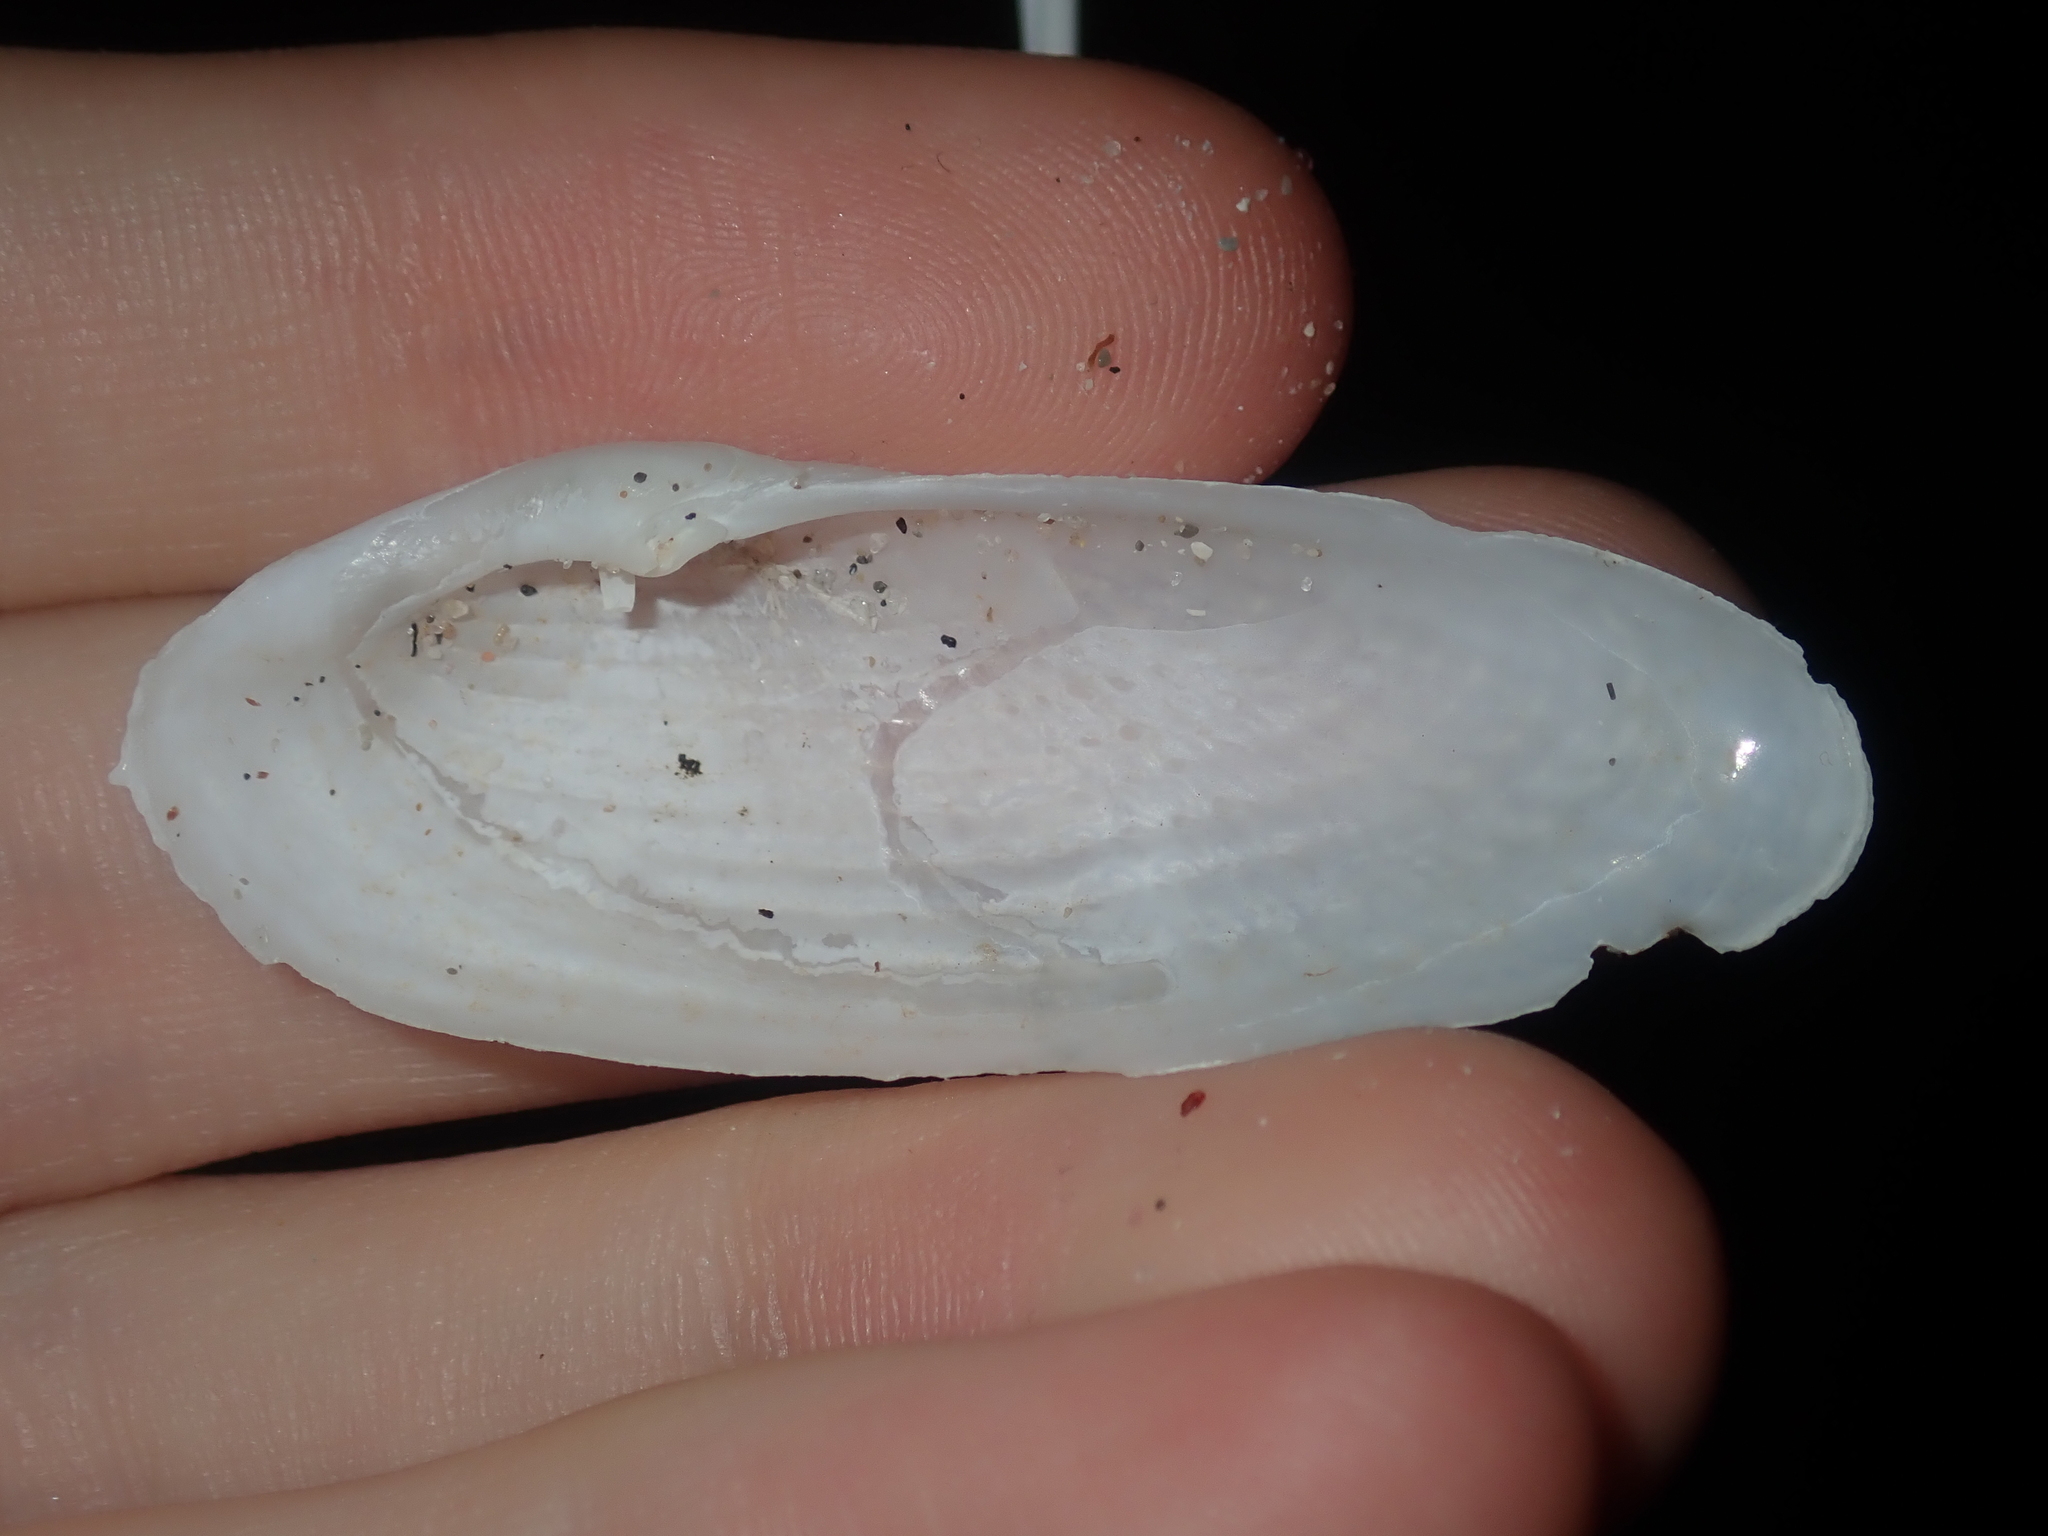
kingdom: Animalia
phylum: Mollusca
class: Bivalvia
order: Myida
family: Pholadidae
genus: Barnea
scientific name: Barnea australasiae
